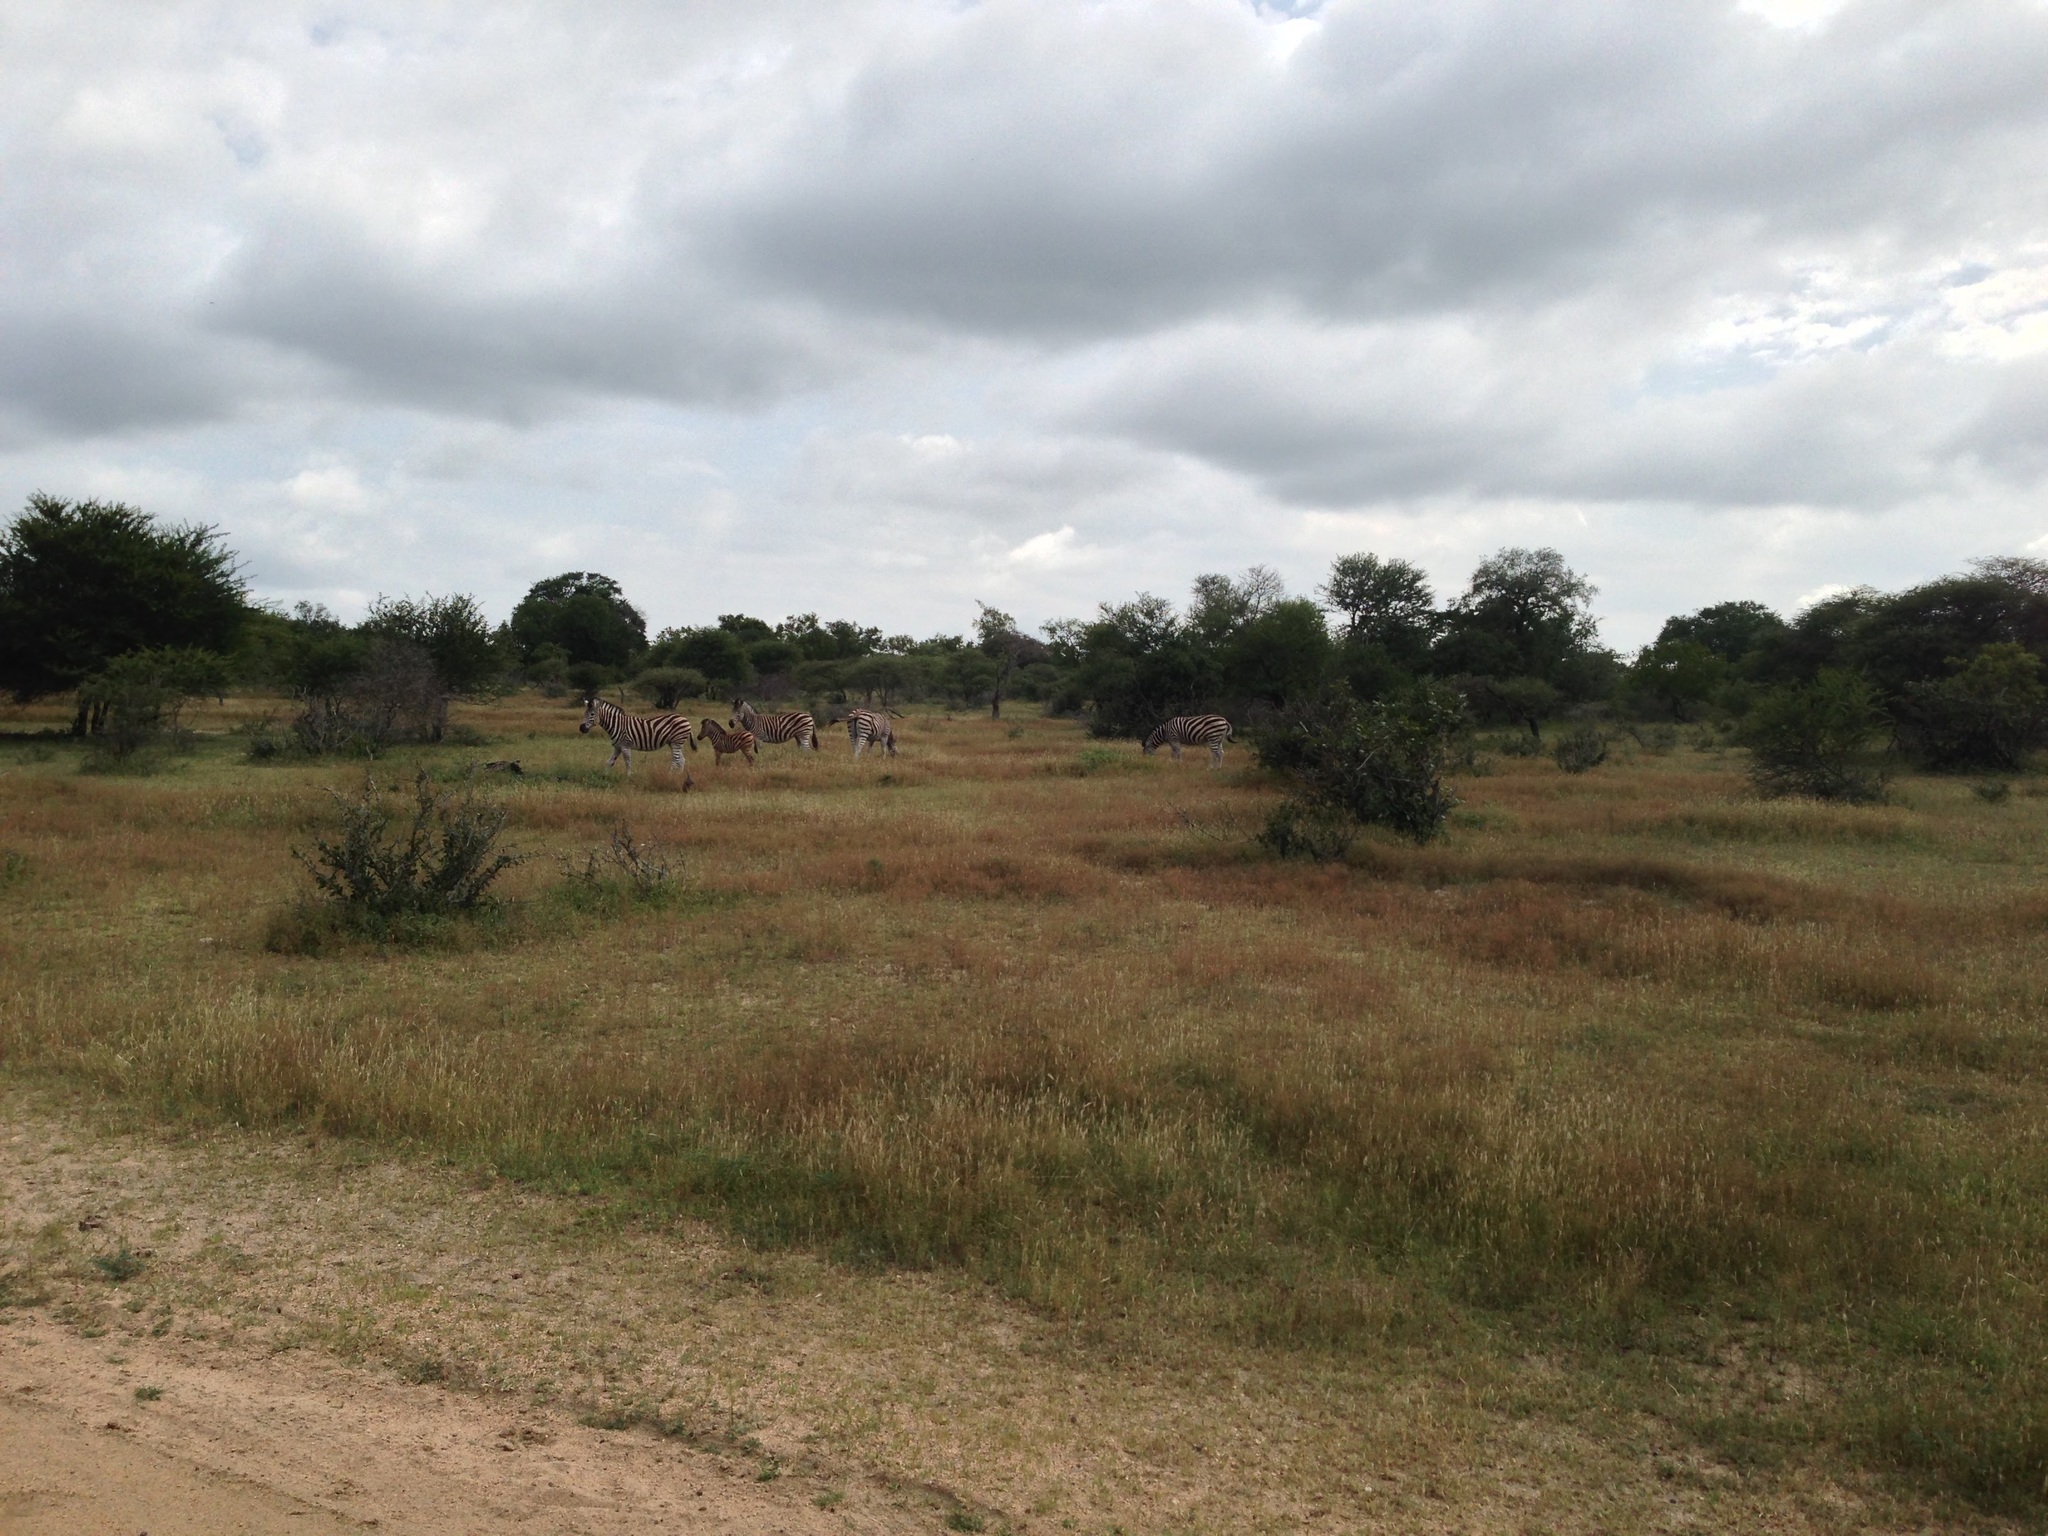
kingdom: Animalia
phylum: Chordata
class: Mammalia
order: Perissodactyla
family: Equidae
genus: Equus
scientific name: Equus quagga
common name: Plains zebra
